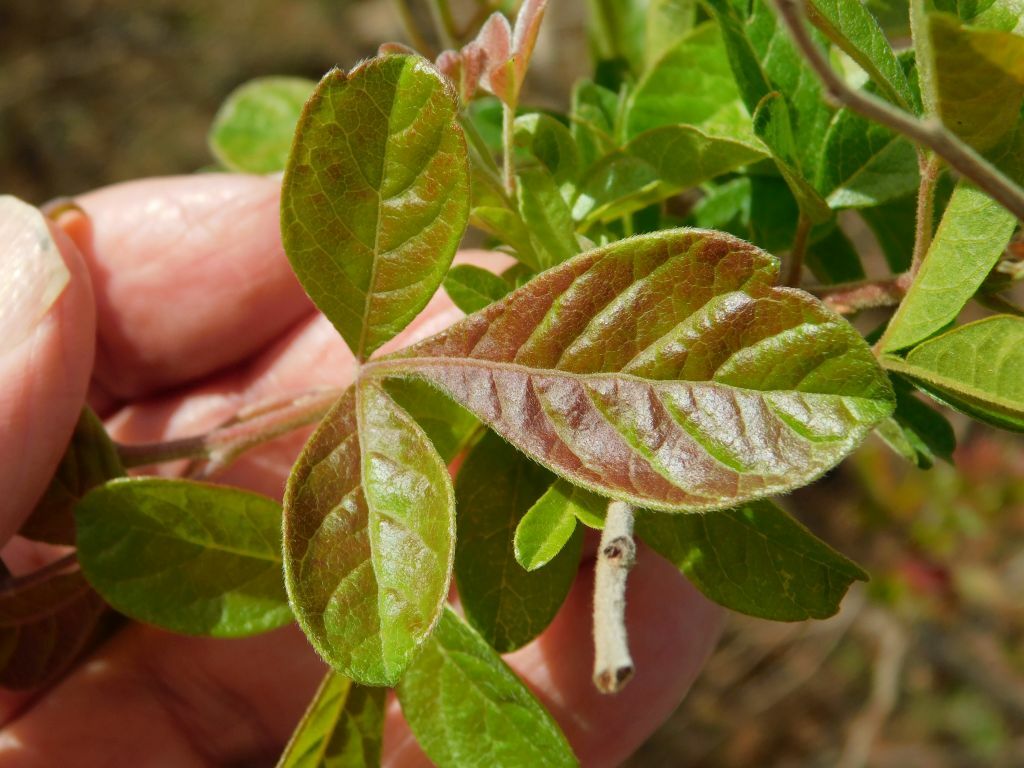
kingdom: Plantae
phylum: Tracheophyta
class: Magnoliopsida
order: Sapindales
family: Anacardiaceae
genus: Searsia
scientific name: Searsia rehmanniana
